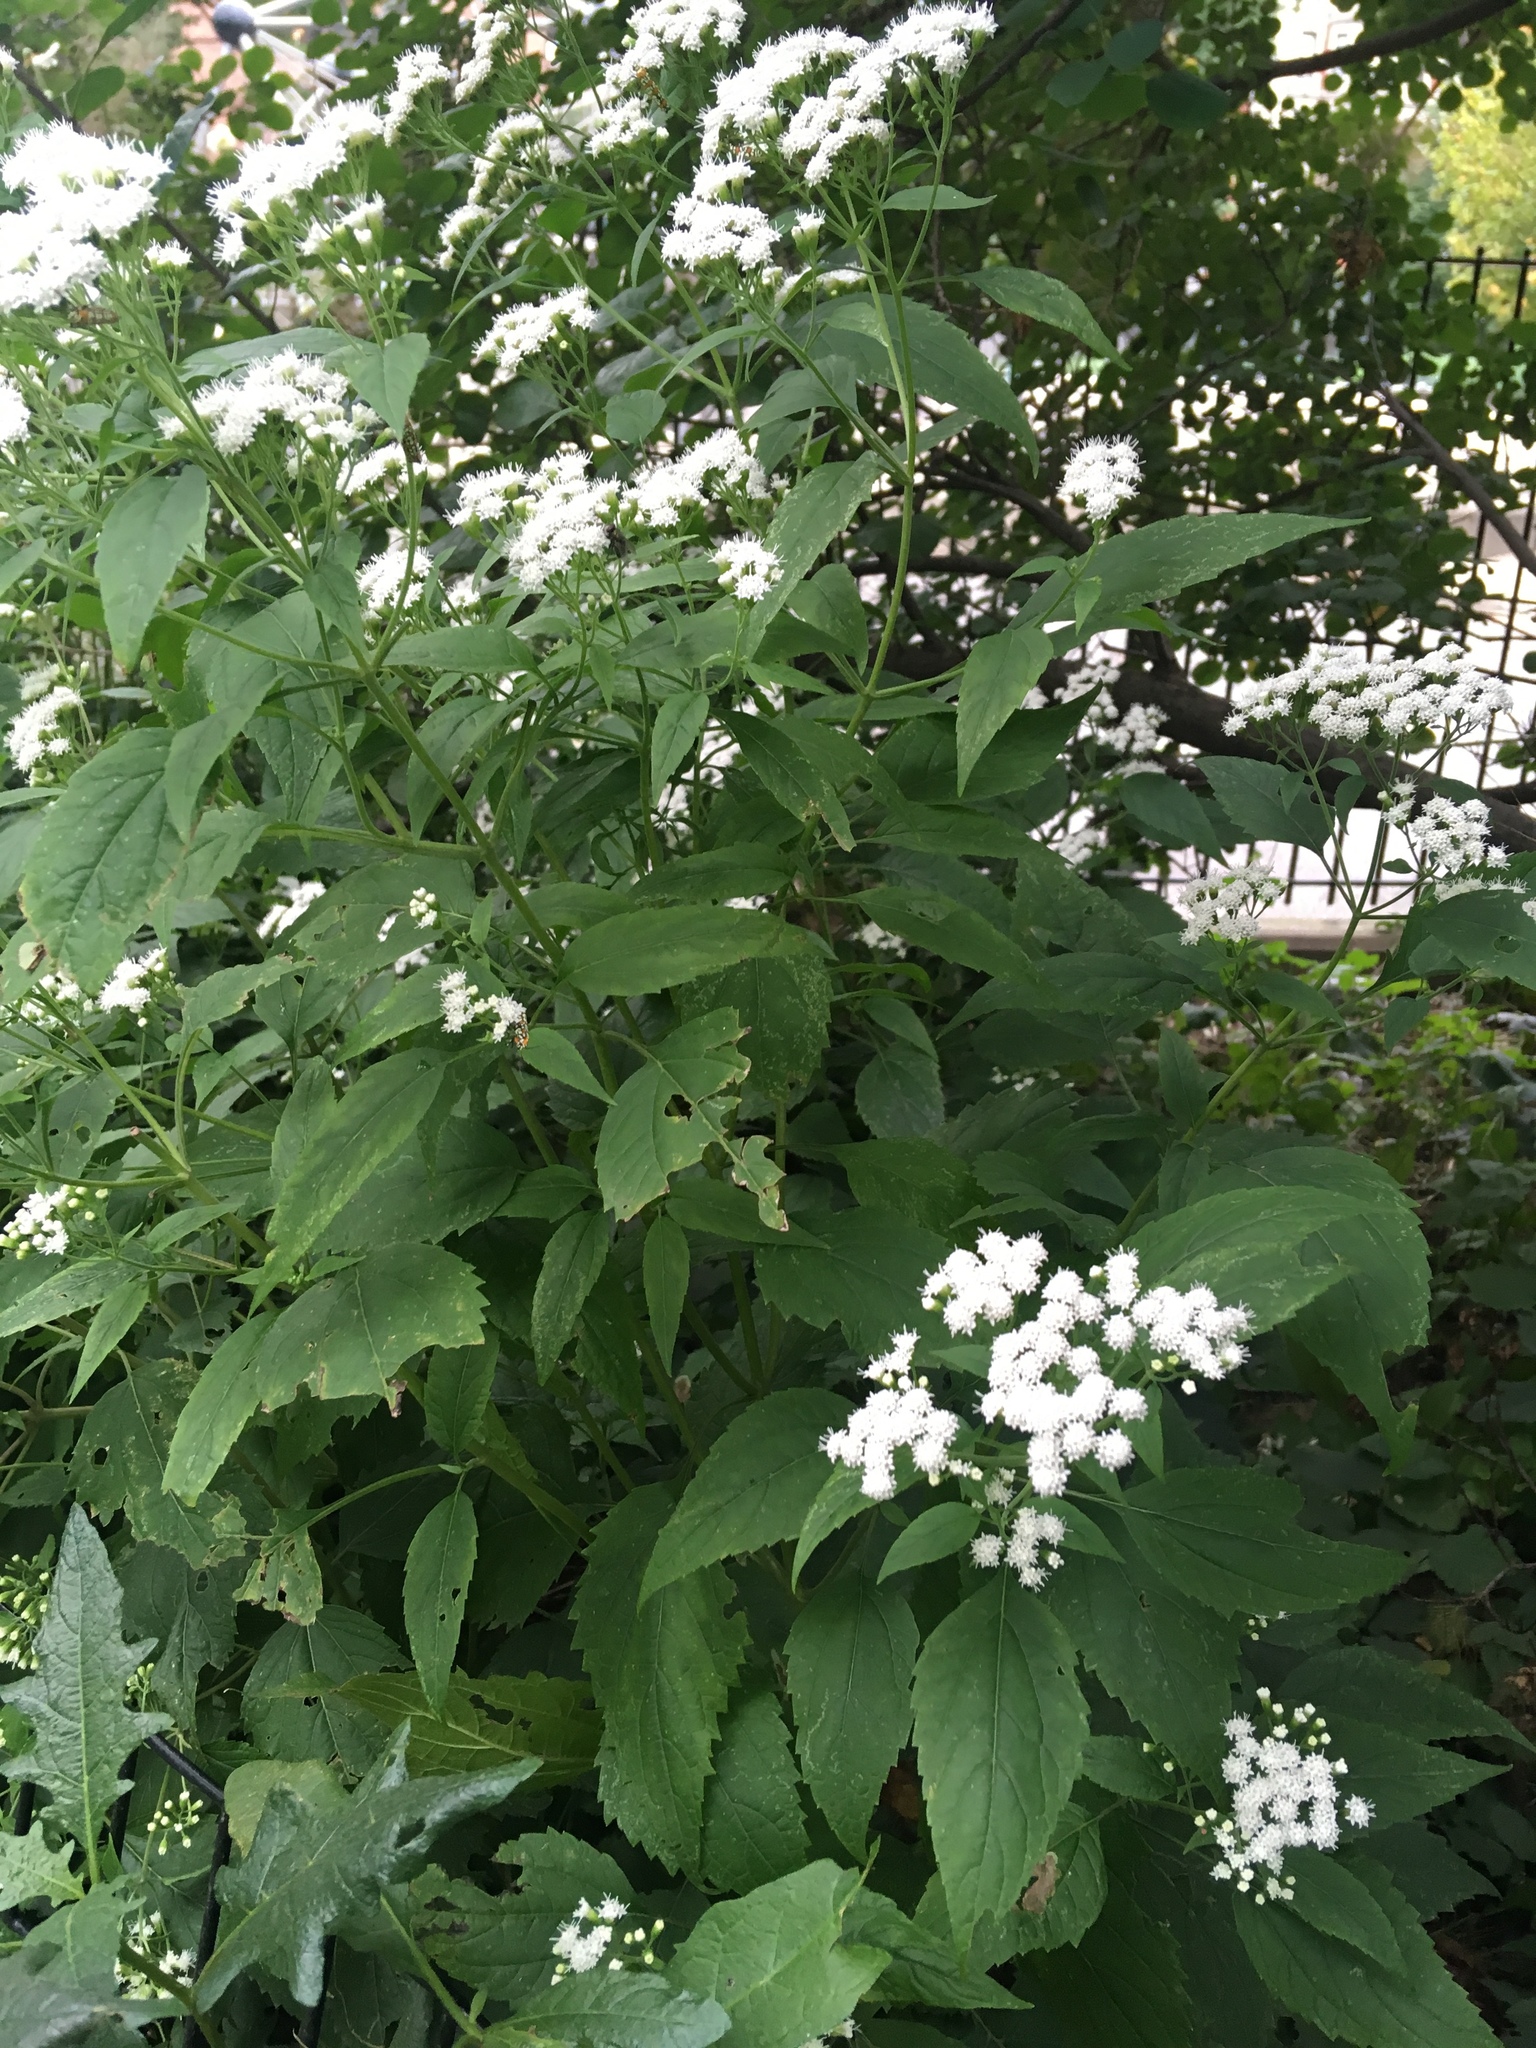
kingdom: Plantae
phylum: Tracheophyta
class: Magnoliopsida
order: Asterales
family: Asteraceae
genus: Ageratina
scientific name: Ageratina altissima
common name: White snakeroot
